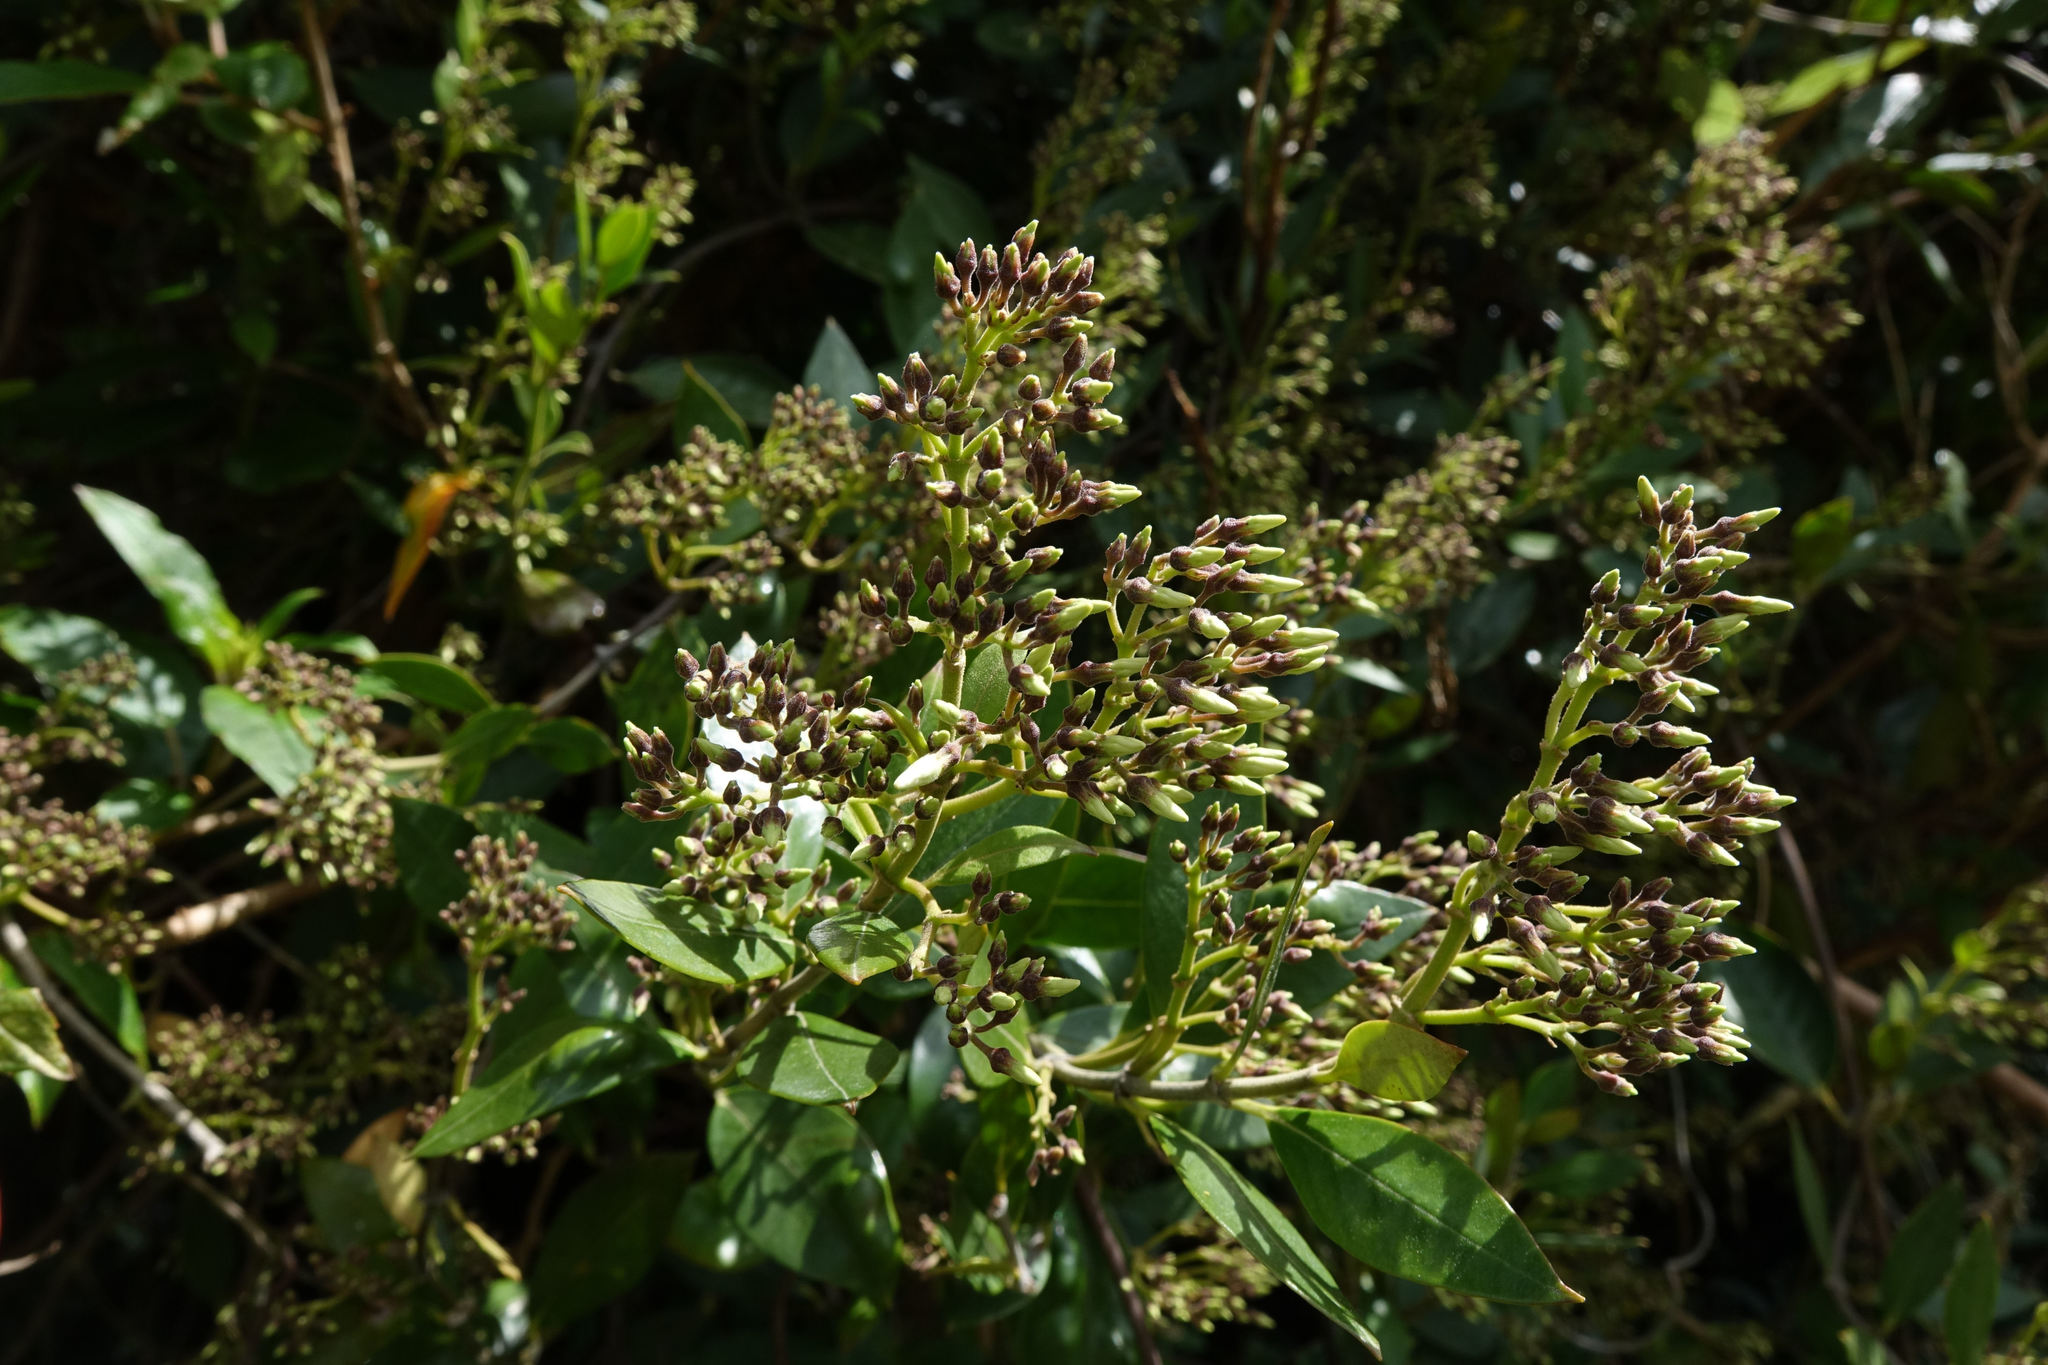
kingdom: Plantae
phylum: Tracheophyta
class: Magnoliopsida
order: Gentianales
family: Apocynaceae
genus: Parsonsia
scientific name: Parsonsia heterophylla
